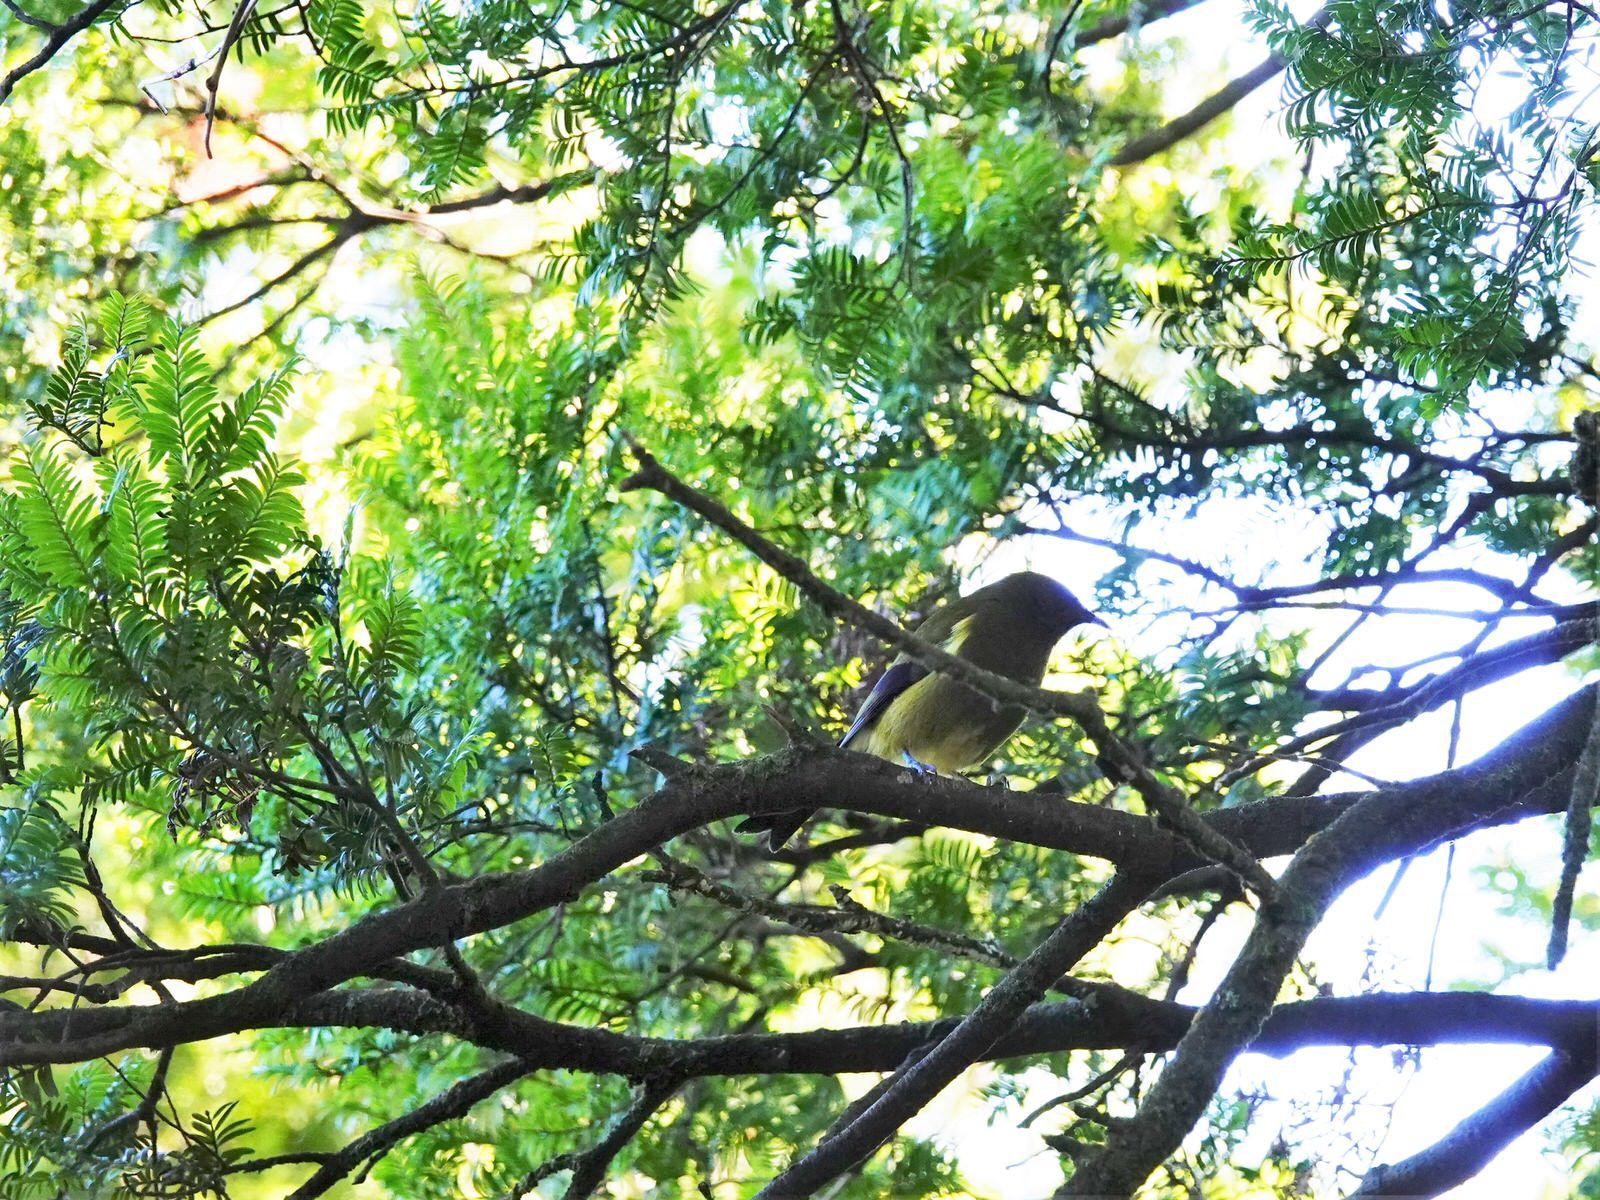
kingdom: Animalia
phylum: Chordata
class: Aves
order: Passeriformes
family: Meliphagidae
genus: Anthornis
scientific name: Anthornis melanura
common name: New zealand bellbird
